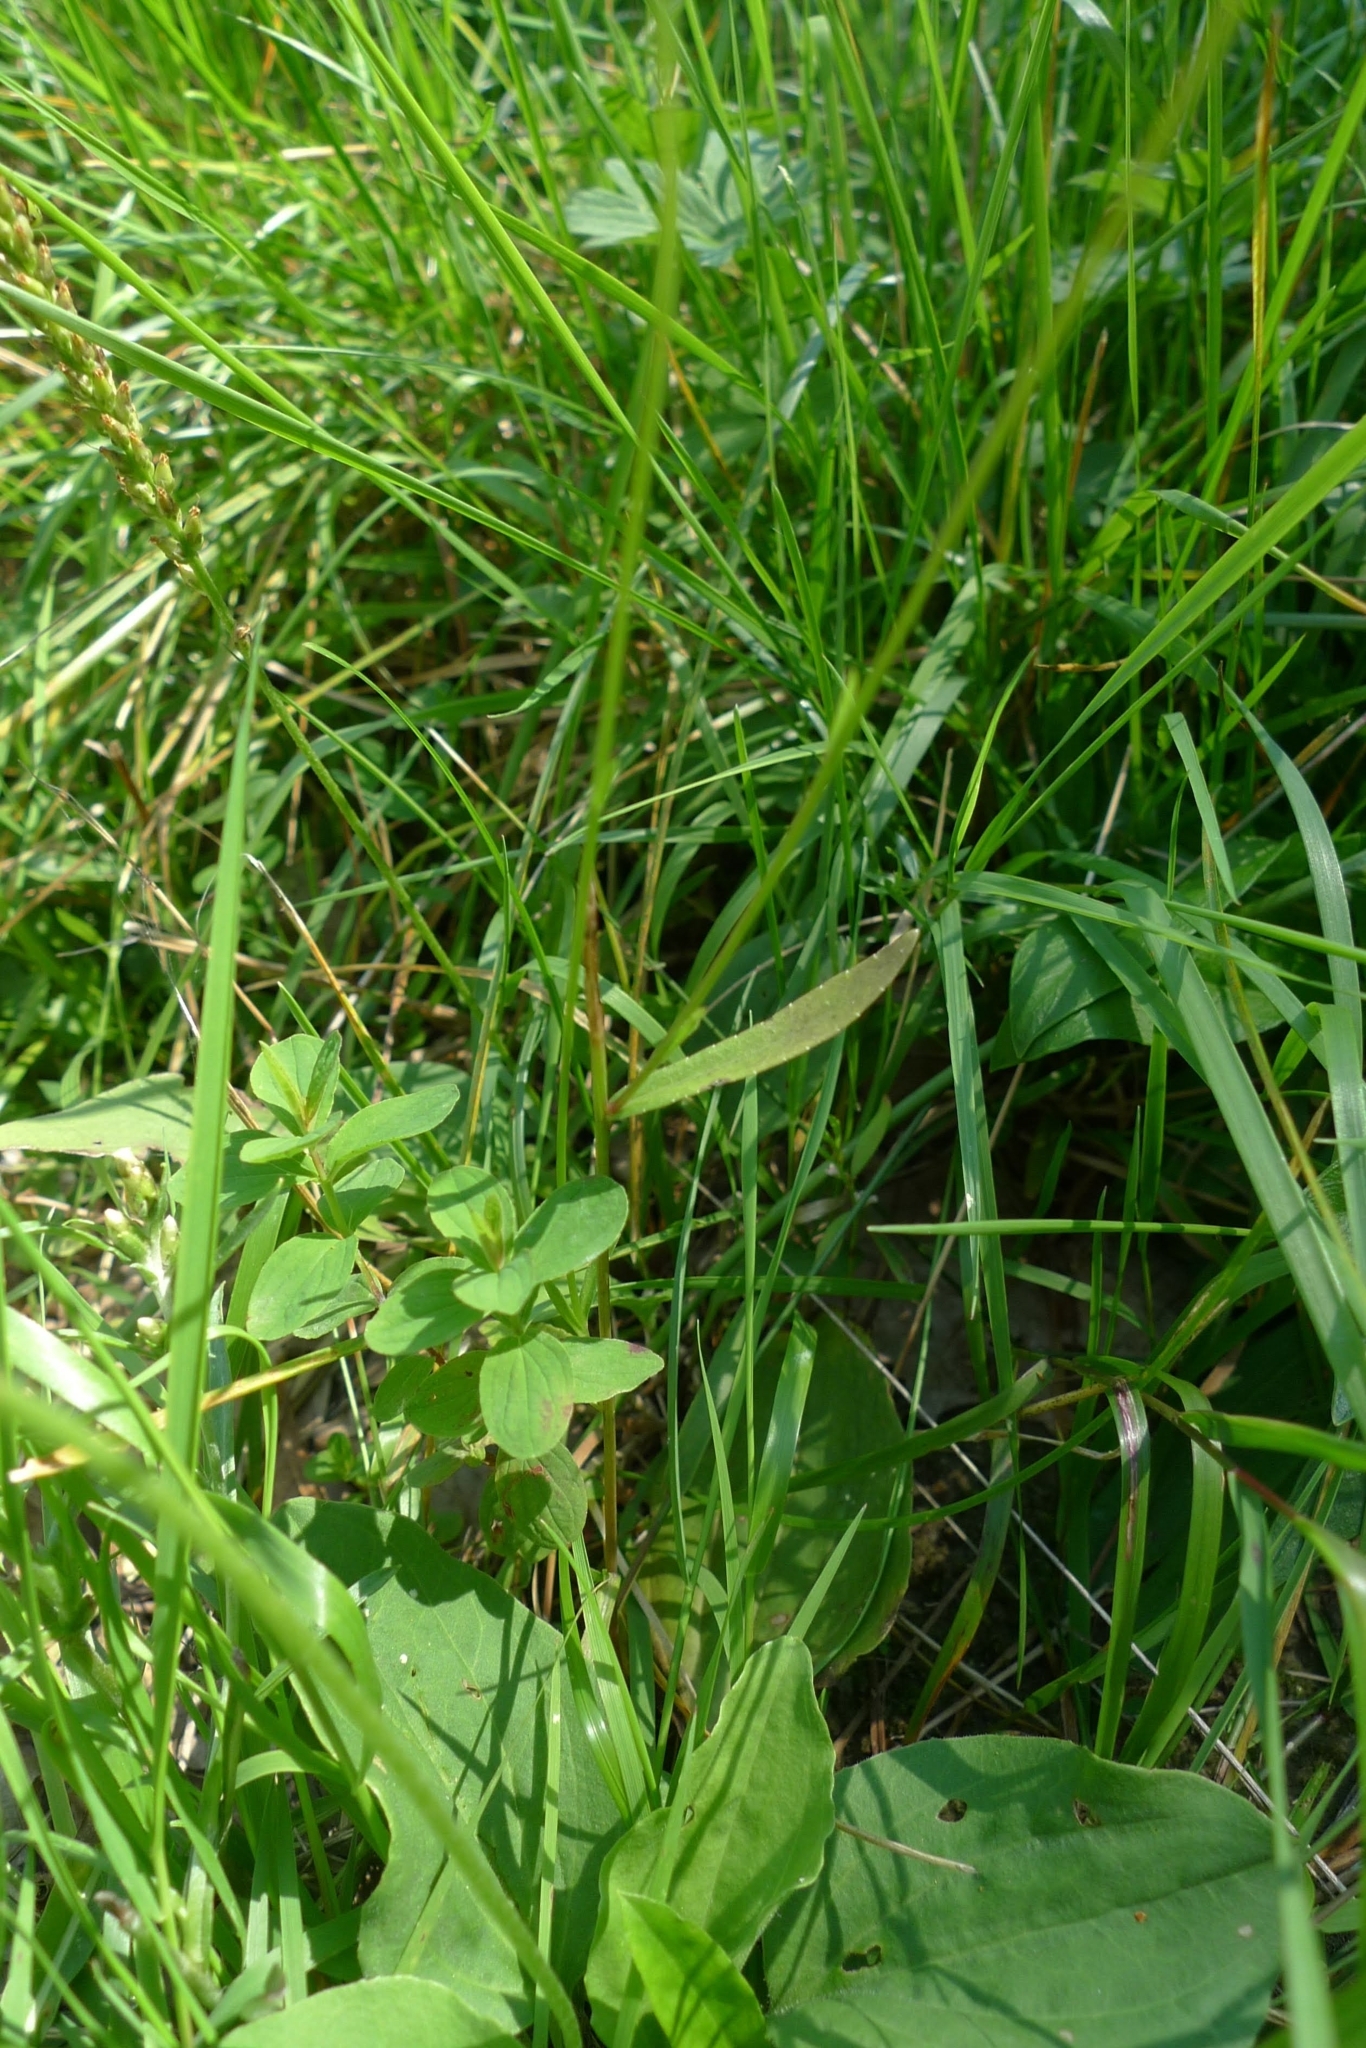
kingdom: Plantae
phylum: Tracheophyta
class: Magnoliopsida
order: Asterales
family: Campanulaceae
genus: Campanula
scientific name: Campanula patula
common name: Spreading bellflower
